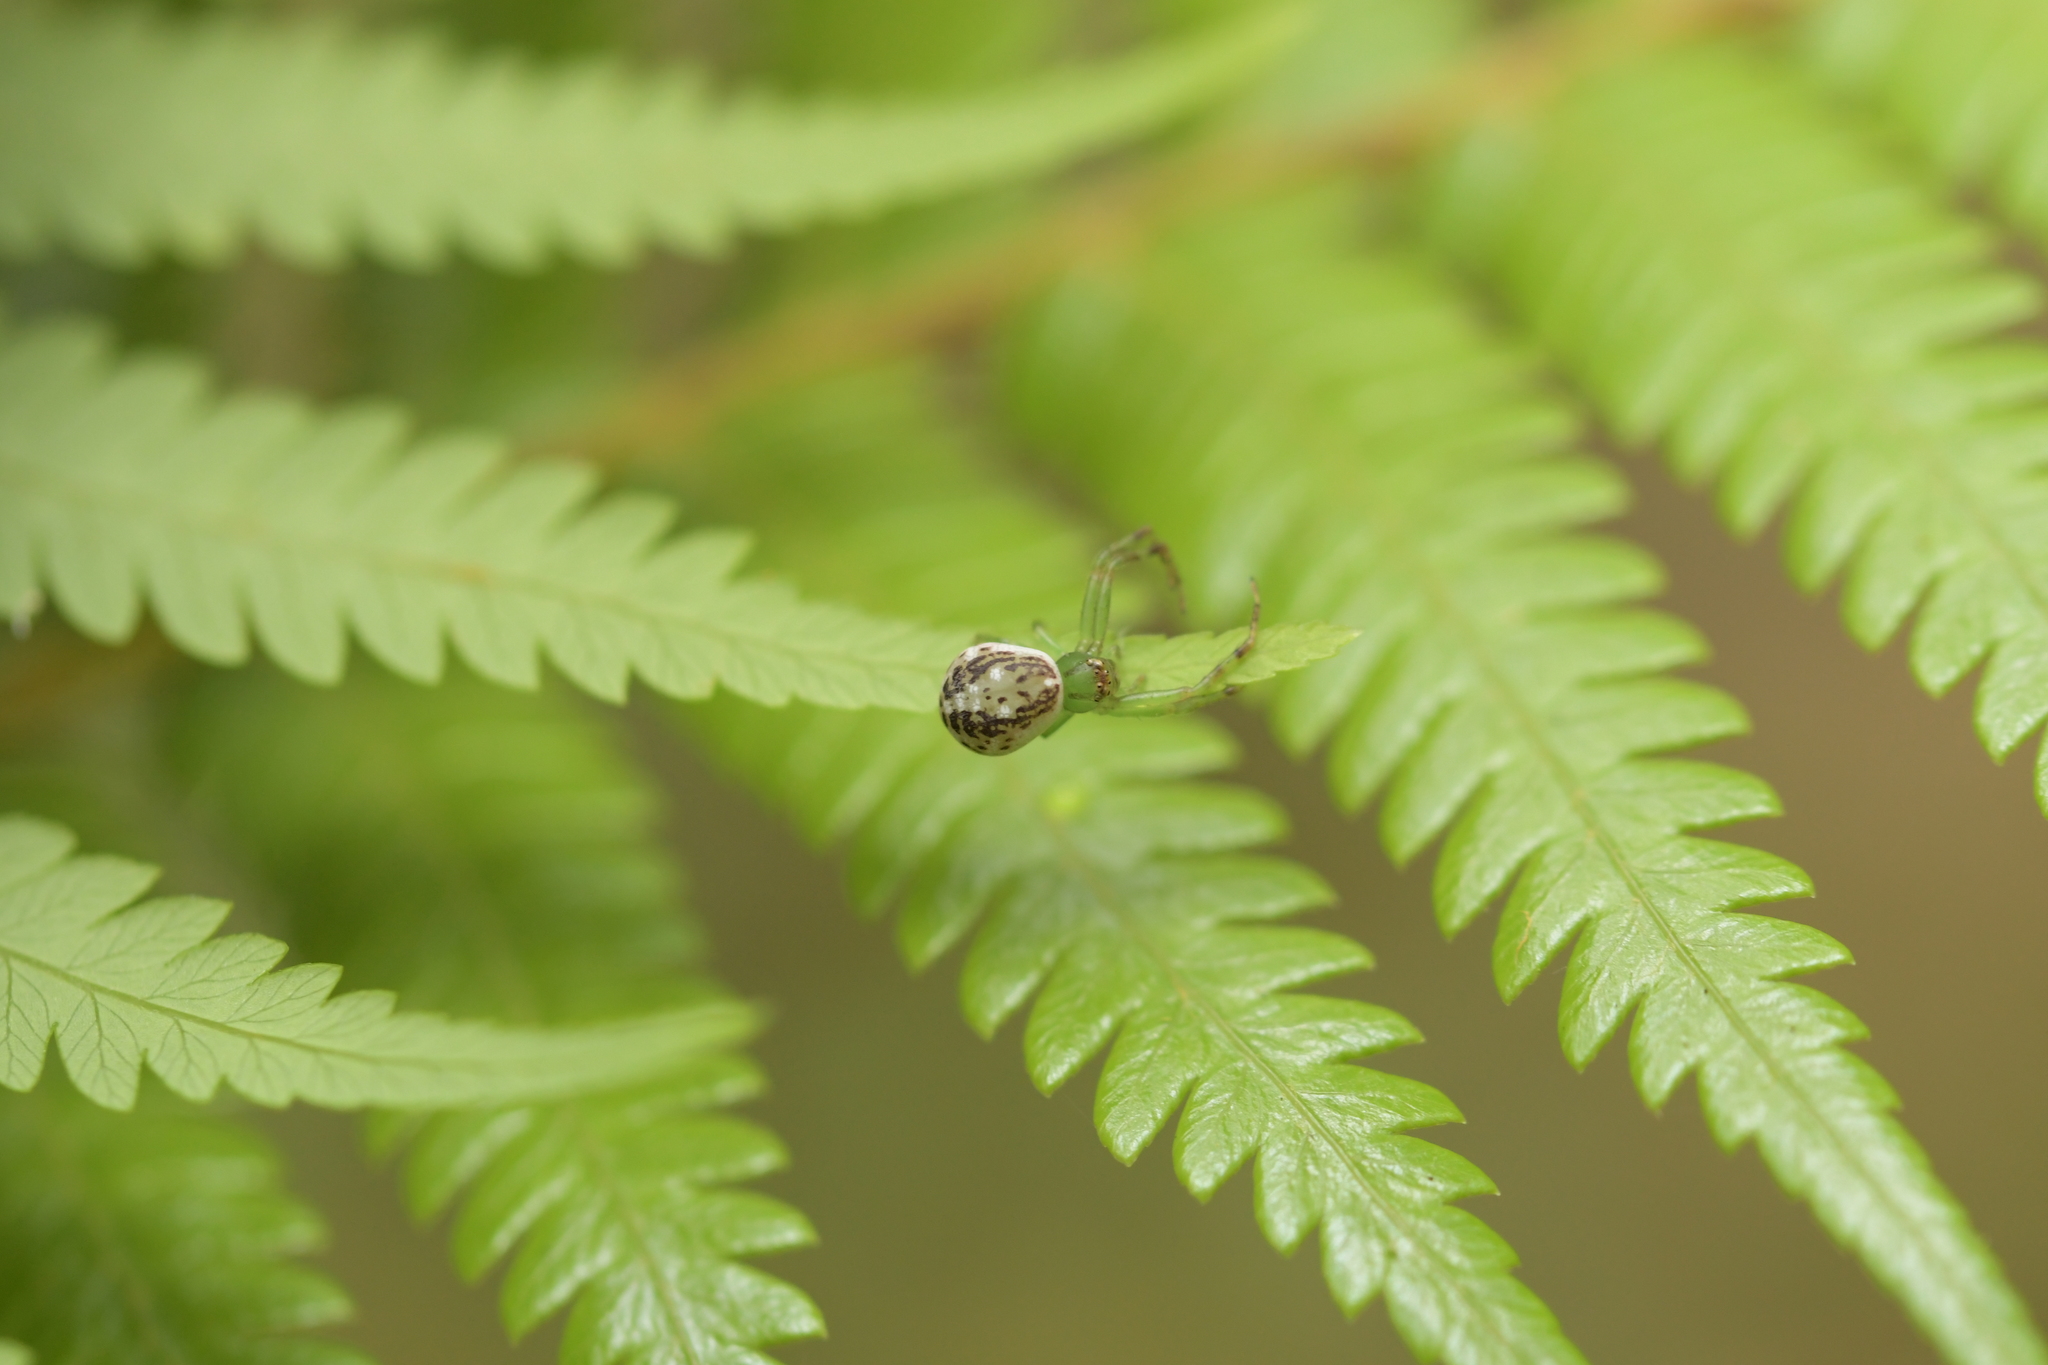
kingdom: Animalia
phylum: Arthropoda
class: Arachnida
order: Araneae
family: Thomisidae
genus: Diaea
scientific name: Diaea ambara
